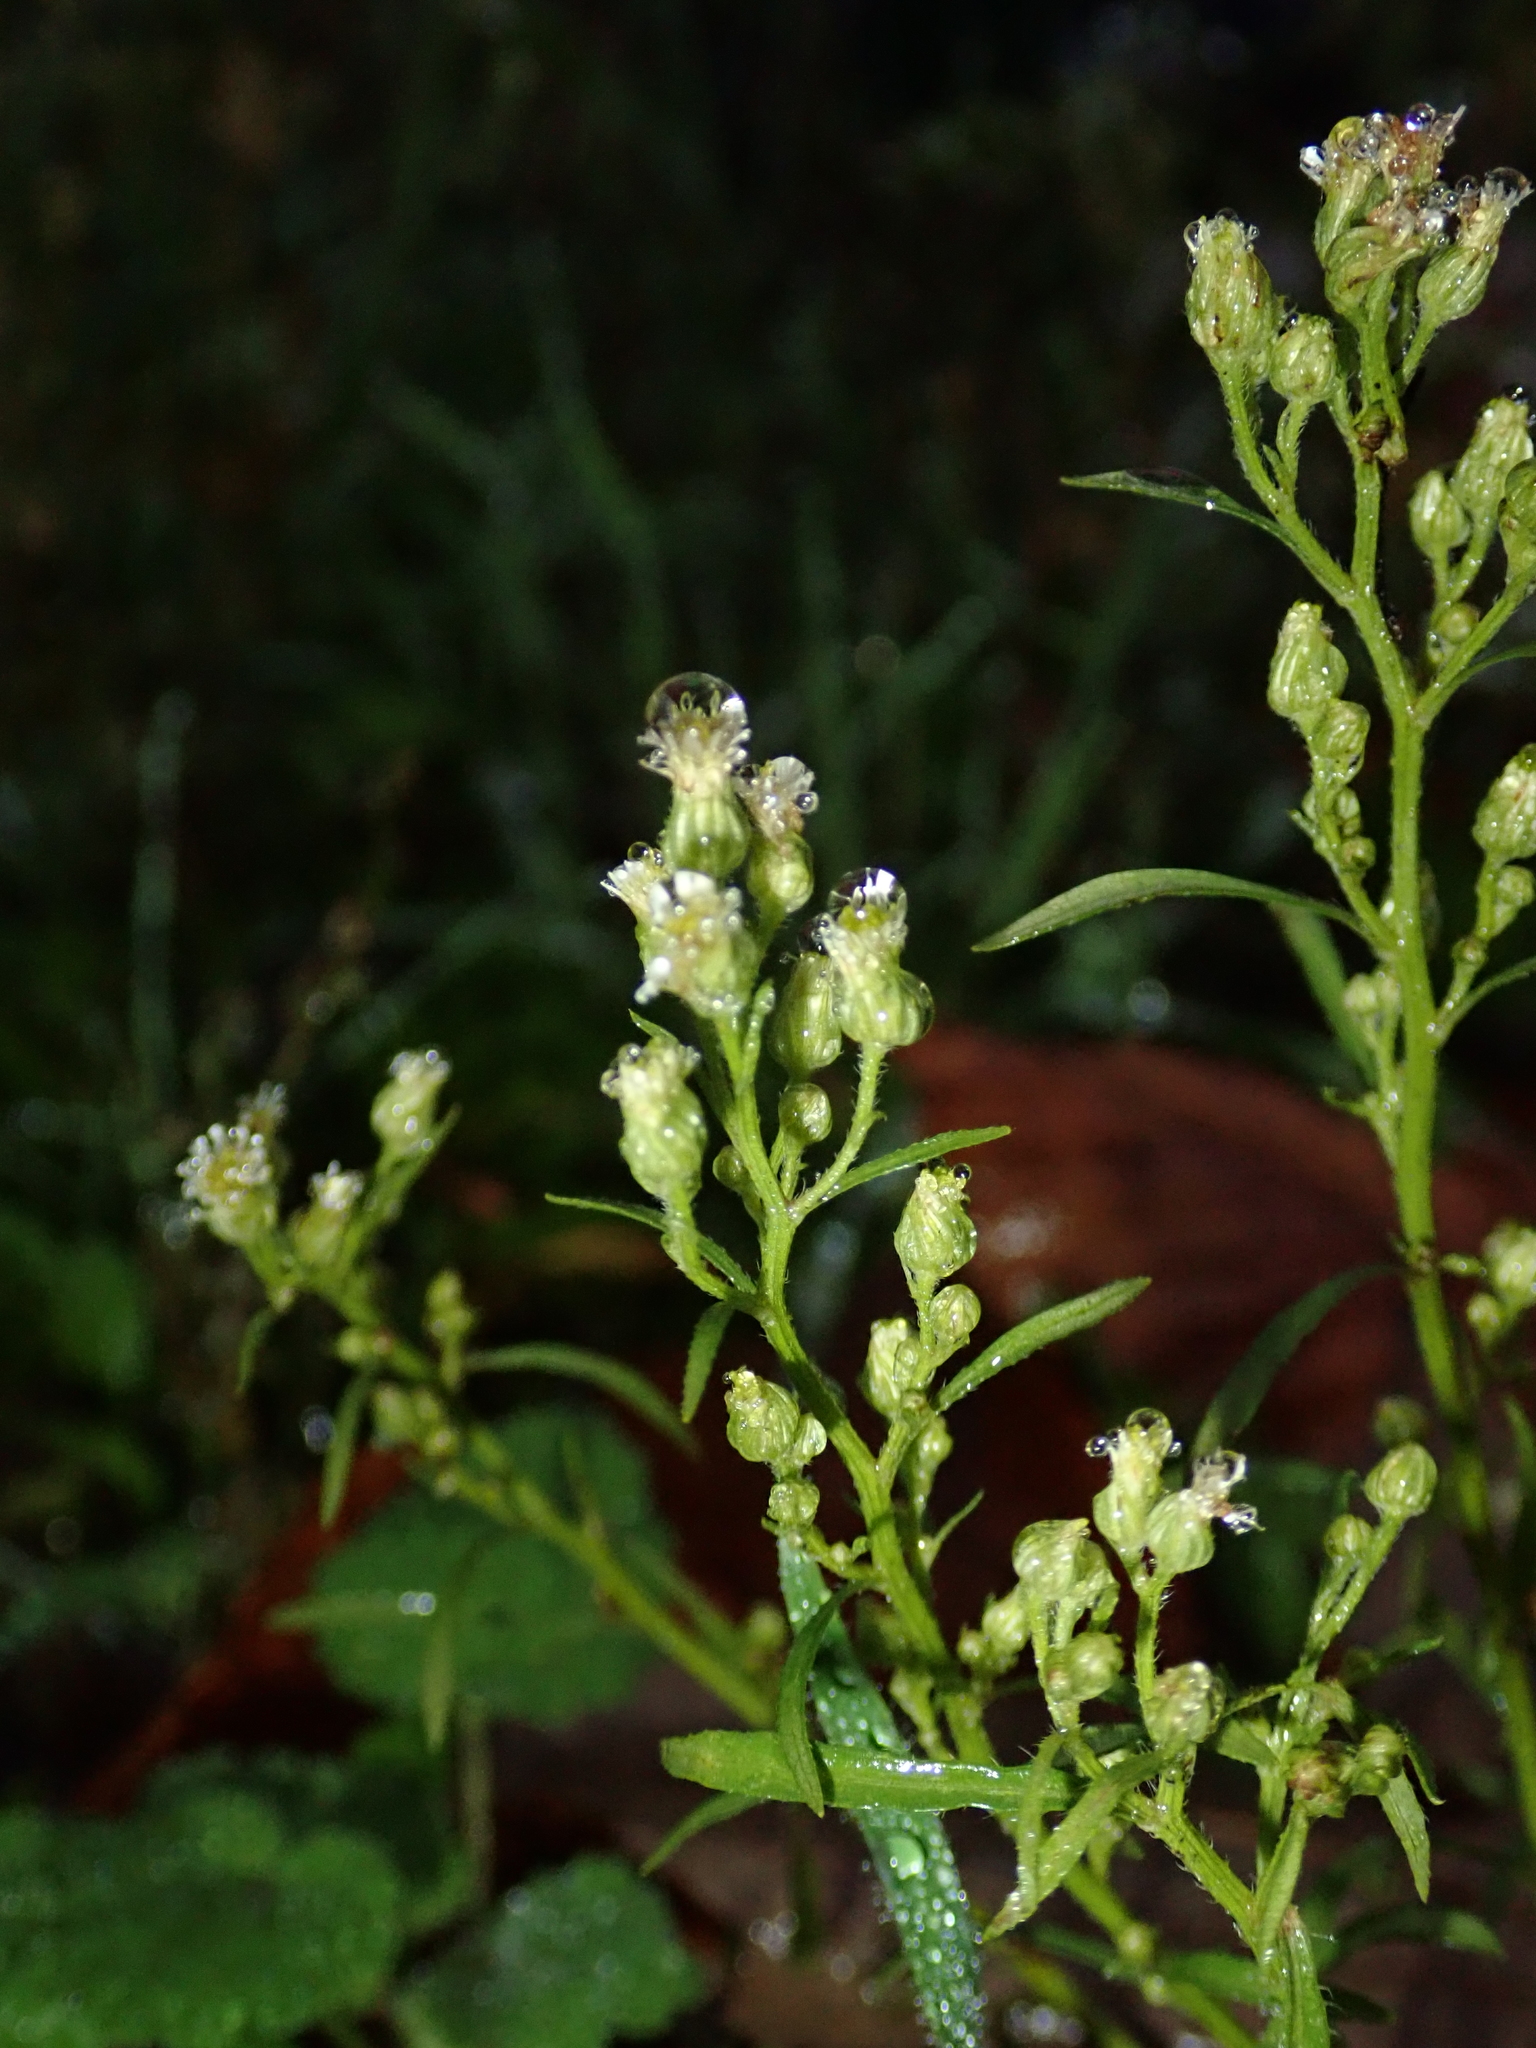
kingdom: Plantae
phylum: Tracheophyta
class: Magnoliopsida
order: Asterales
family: Asteraceae
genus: Erigeron
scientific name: Erigeron canadensis
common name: Canadian fleabane
